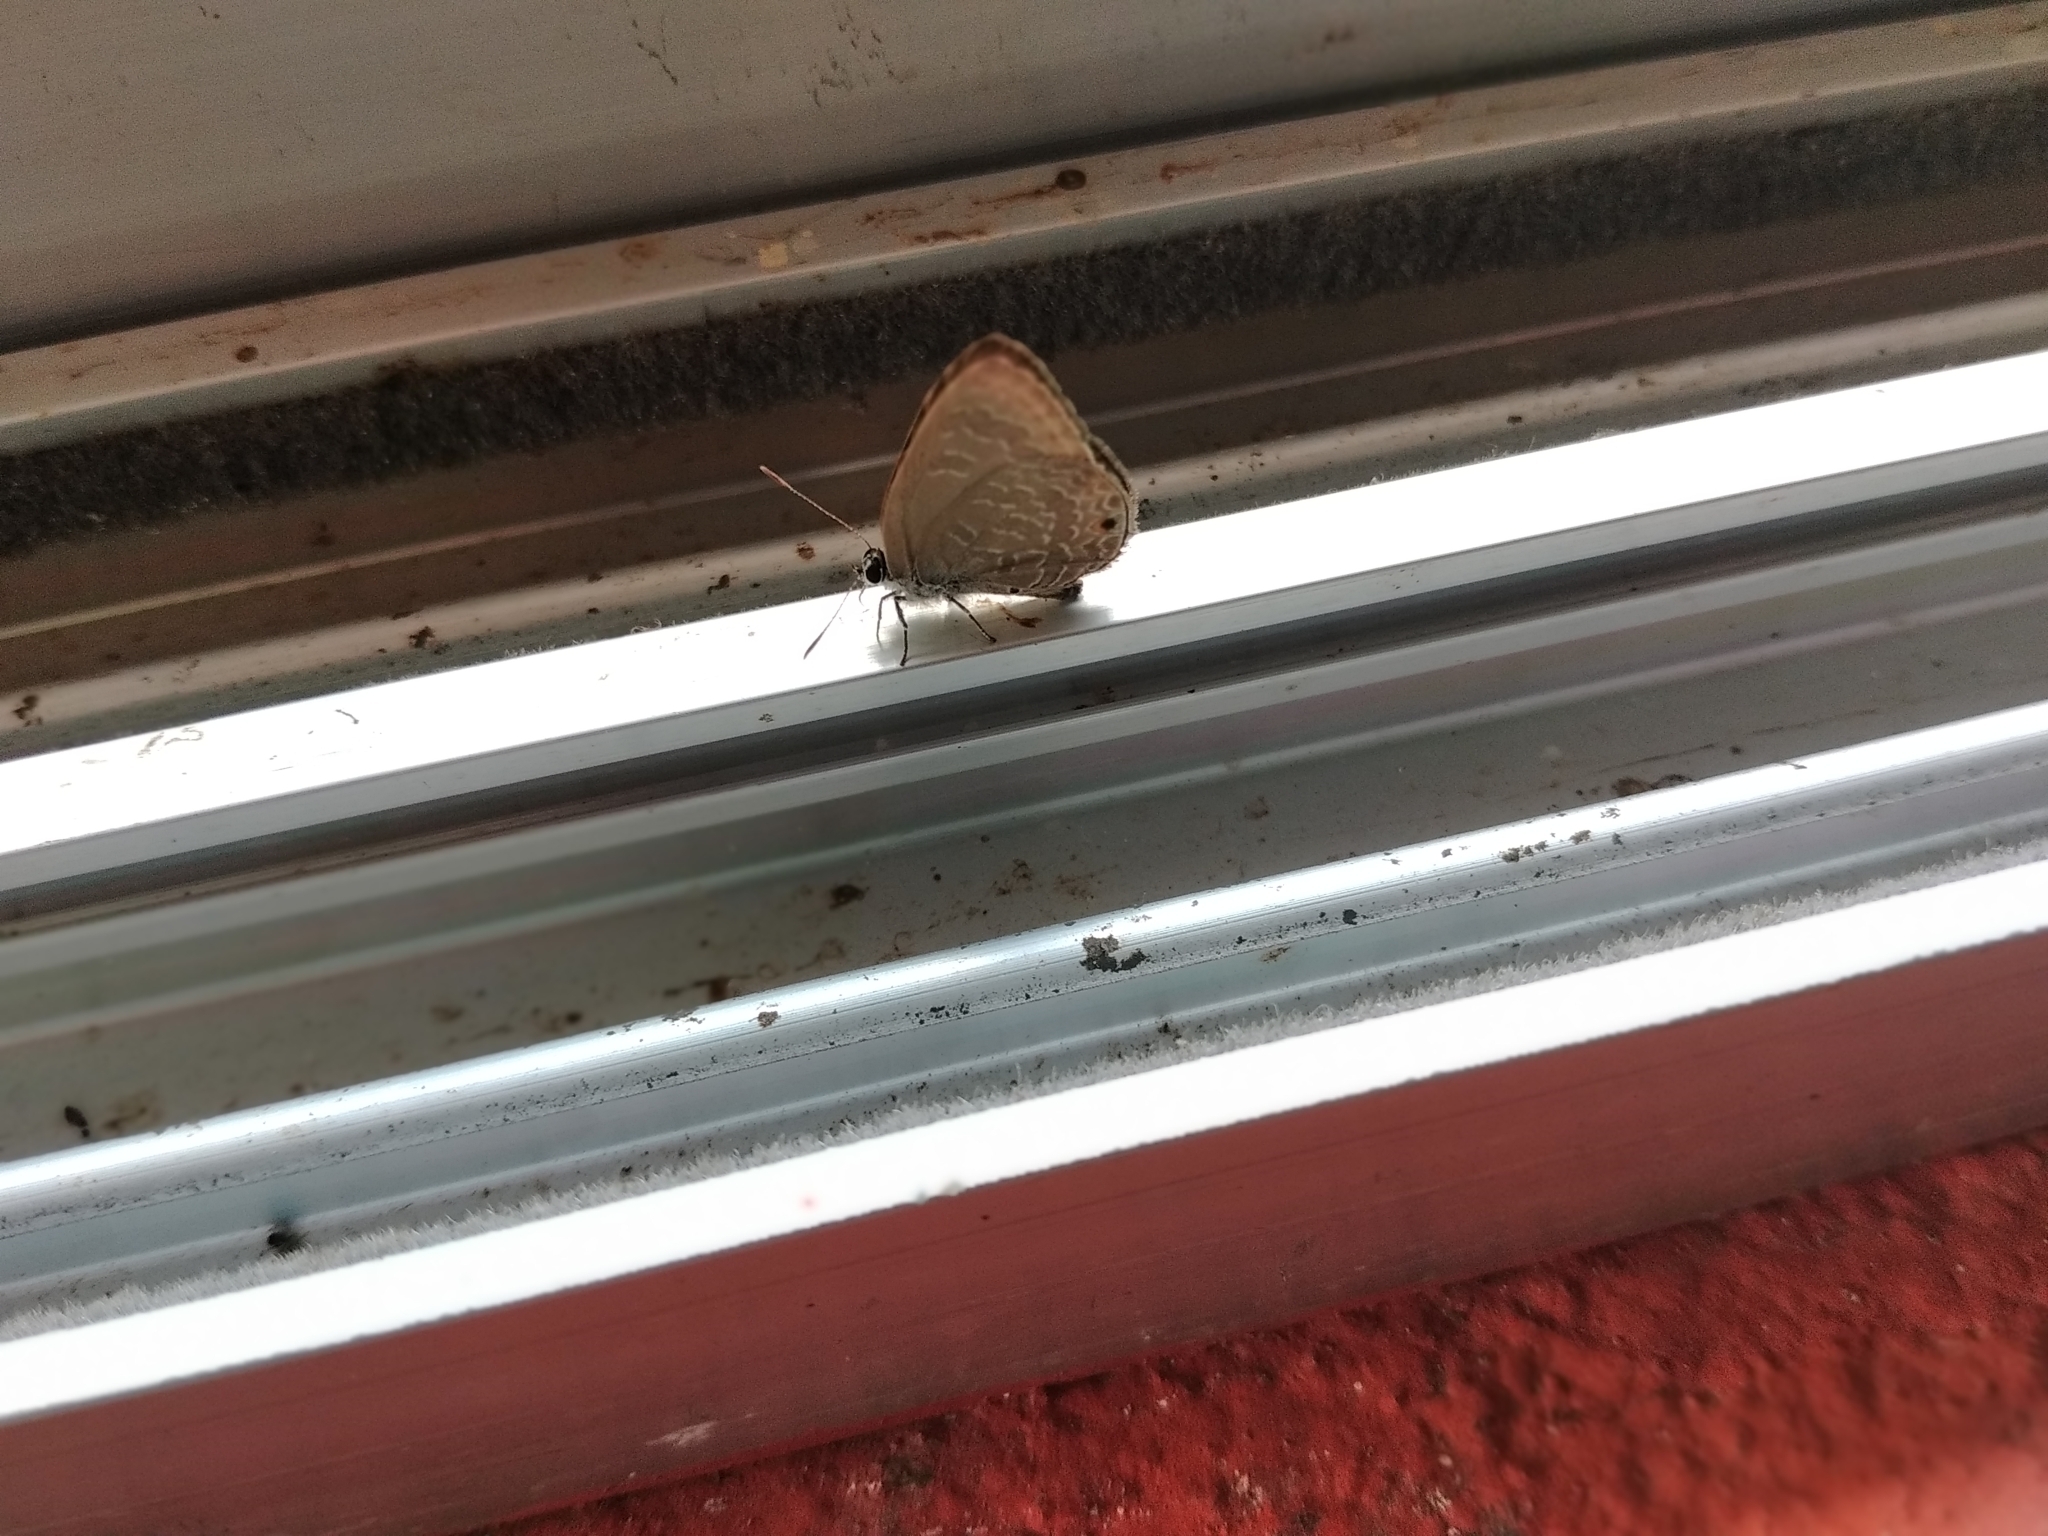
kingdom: Animalia
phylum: Arthropoda
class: Insecta
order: Lepidoptera
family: Lycaenidae
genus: Anthene
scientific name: Anthene emolus
